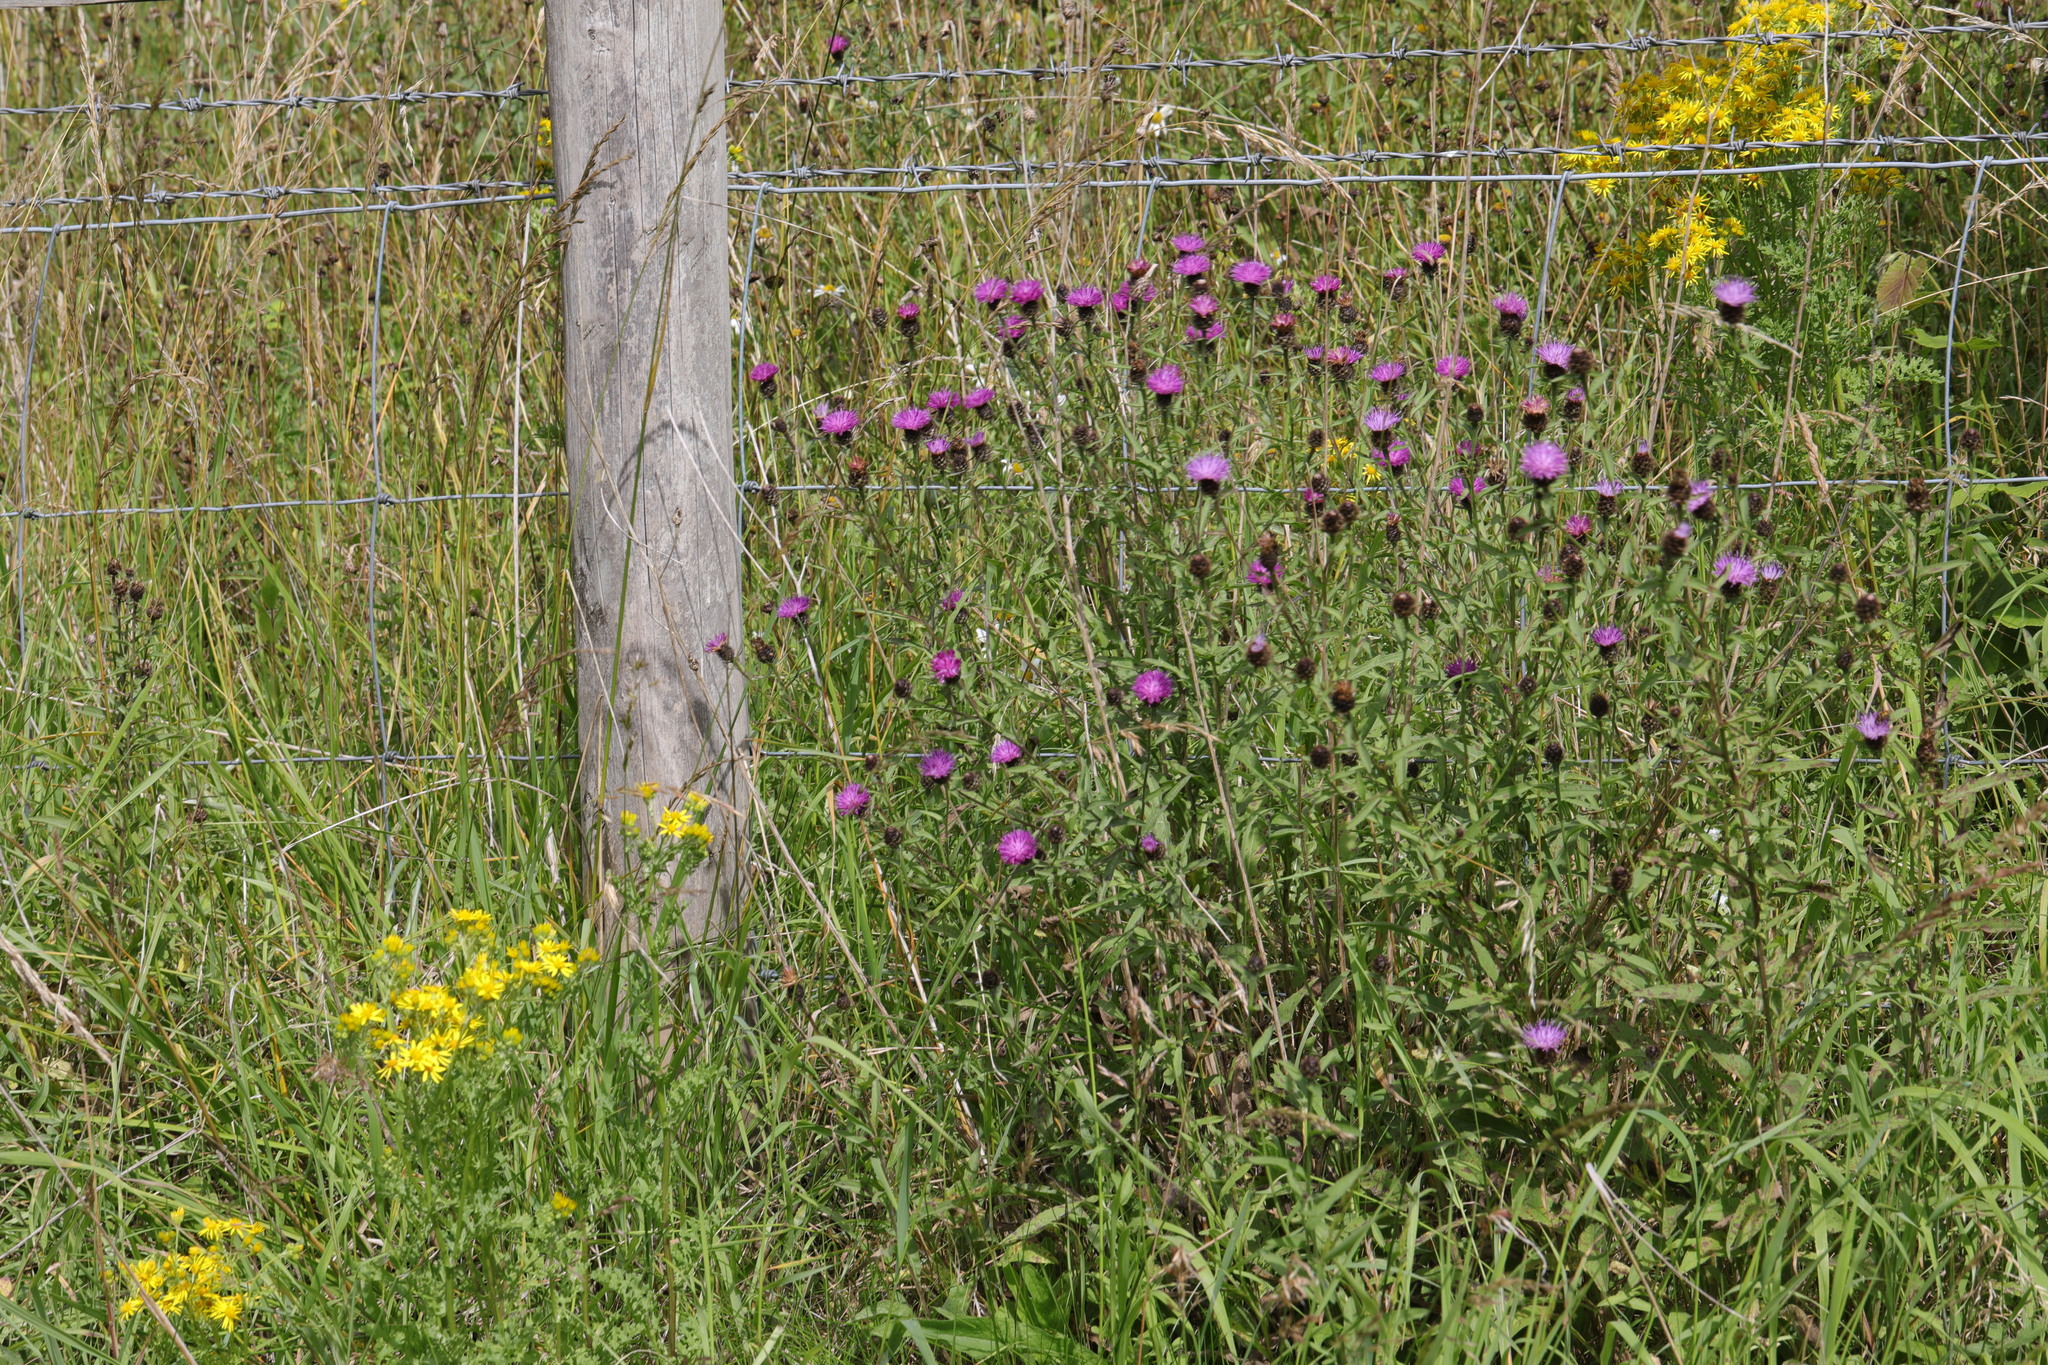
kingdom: Plantae
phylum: Tracheophyta
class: Magnoliopsida
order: Asterales
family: Asteraceae
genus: Centaurea
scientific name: Centaurea nigra
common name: Lesser knapweed
